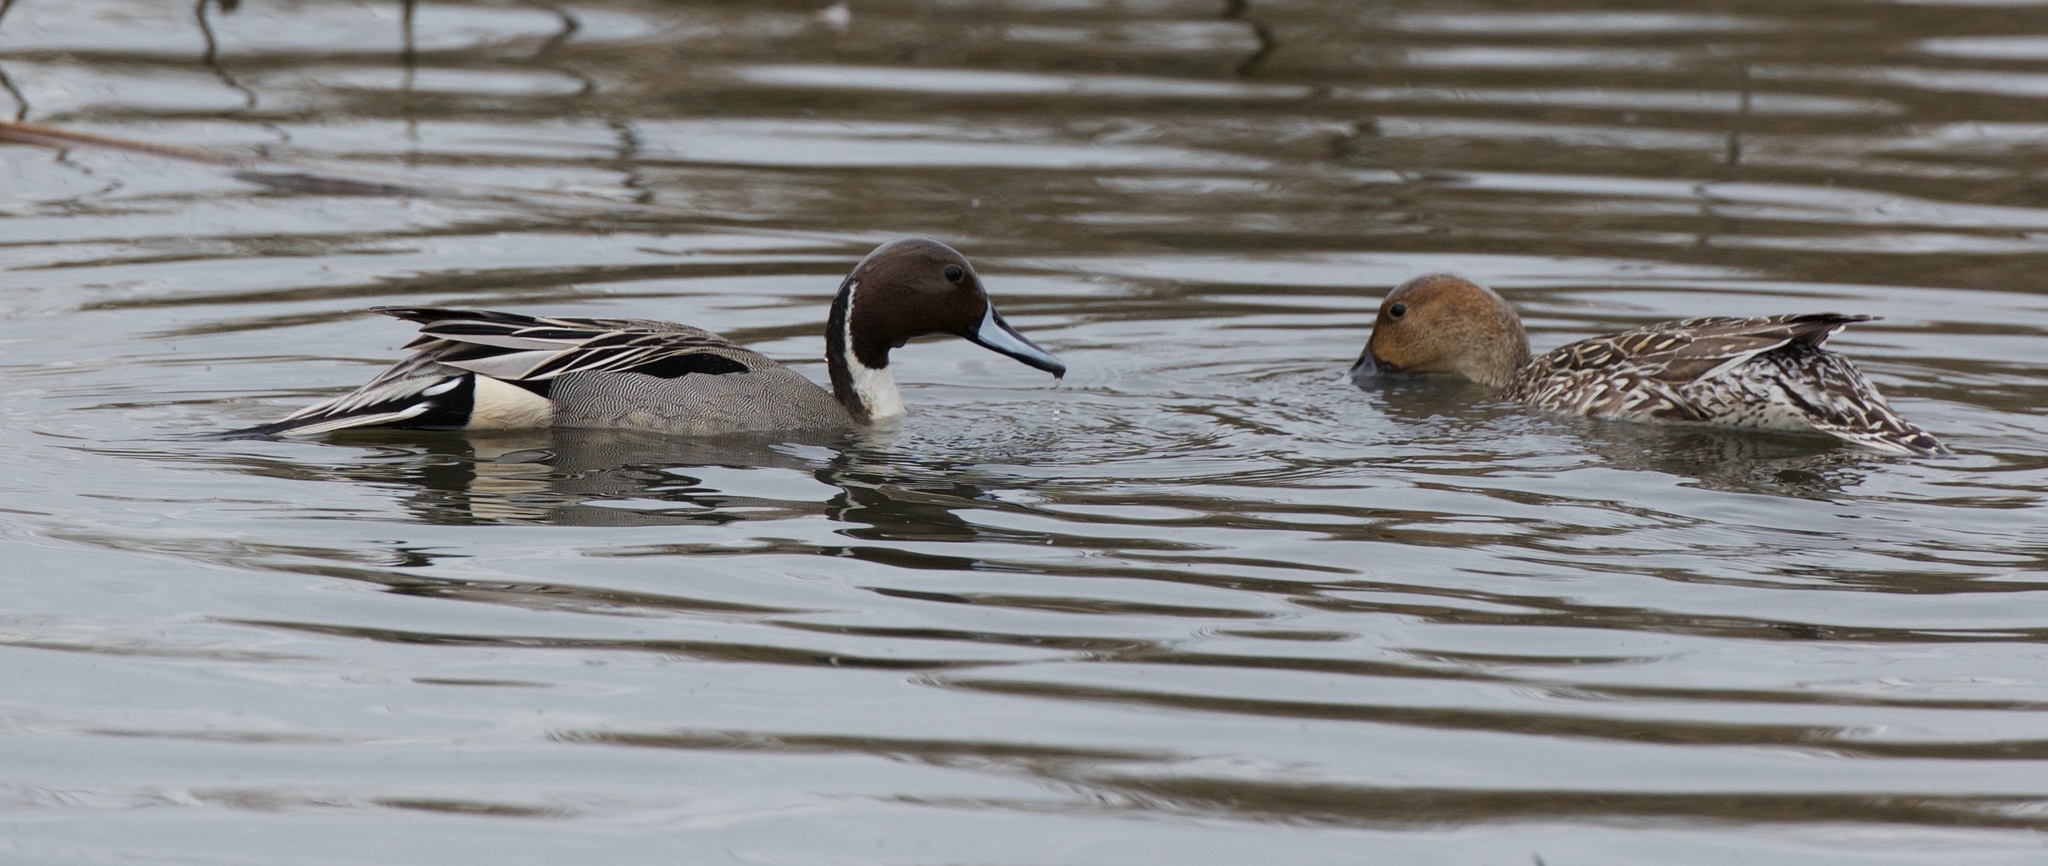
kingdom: Animalia
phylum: Chordata
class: Aves
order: Anseriformes
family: Anatidae
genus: Anas
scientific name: Anas acuta
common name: Northern pintail
